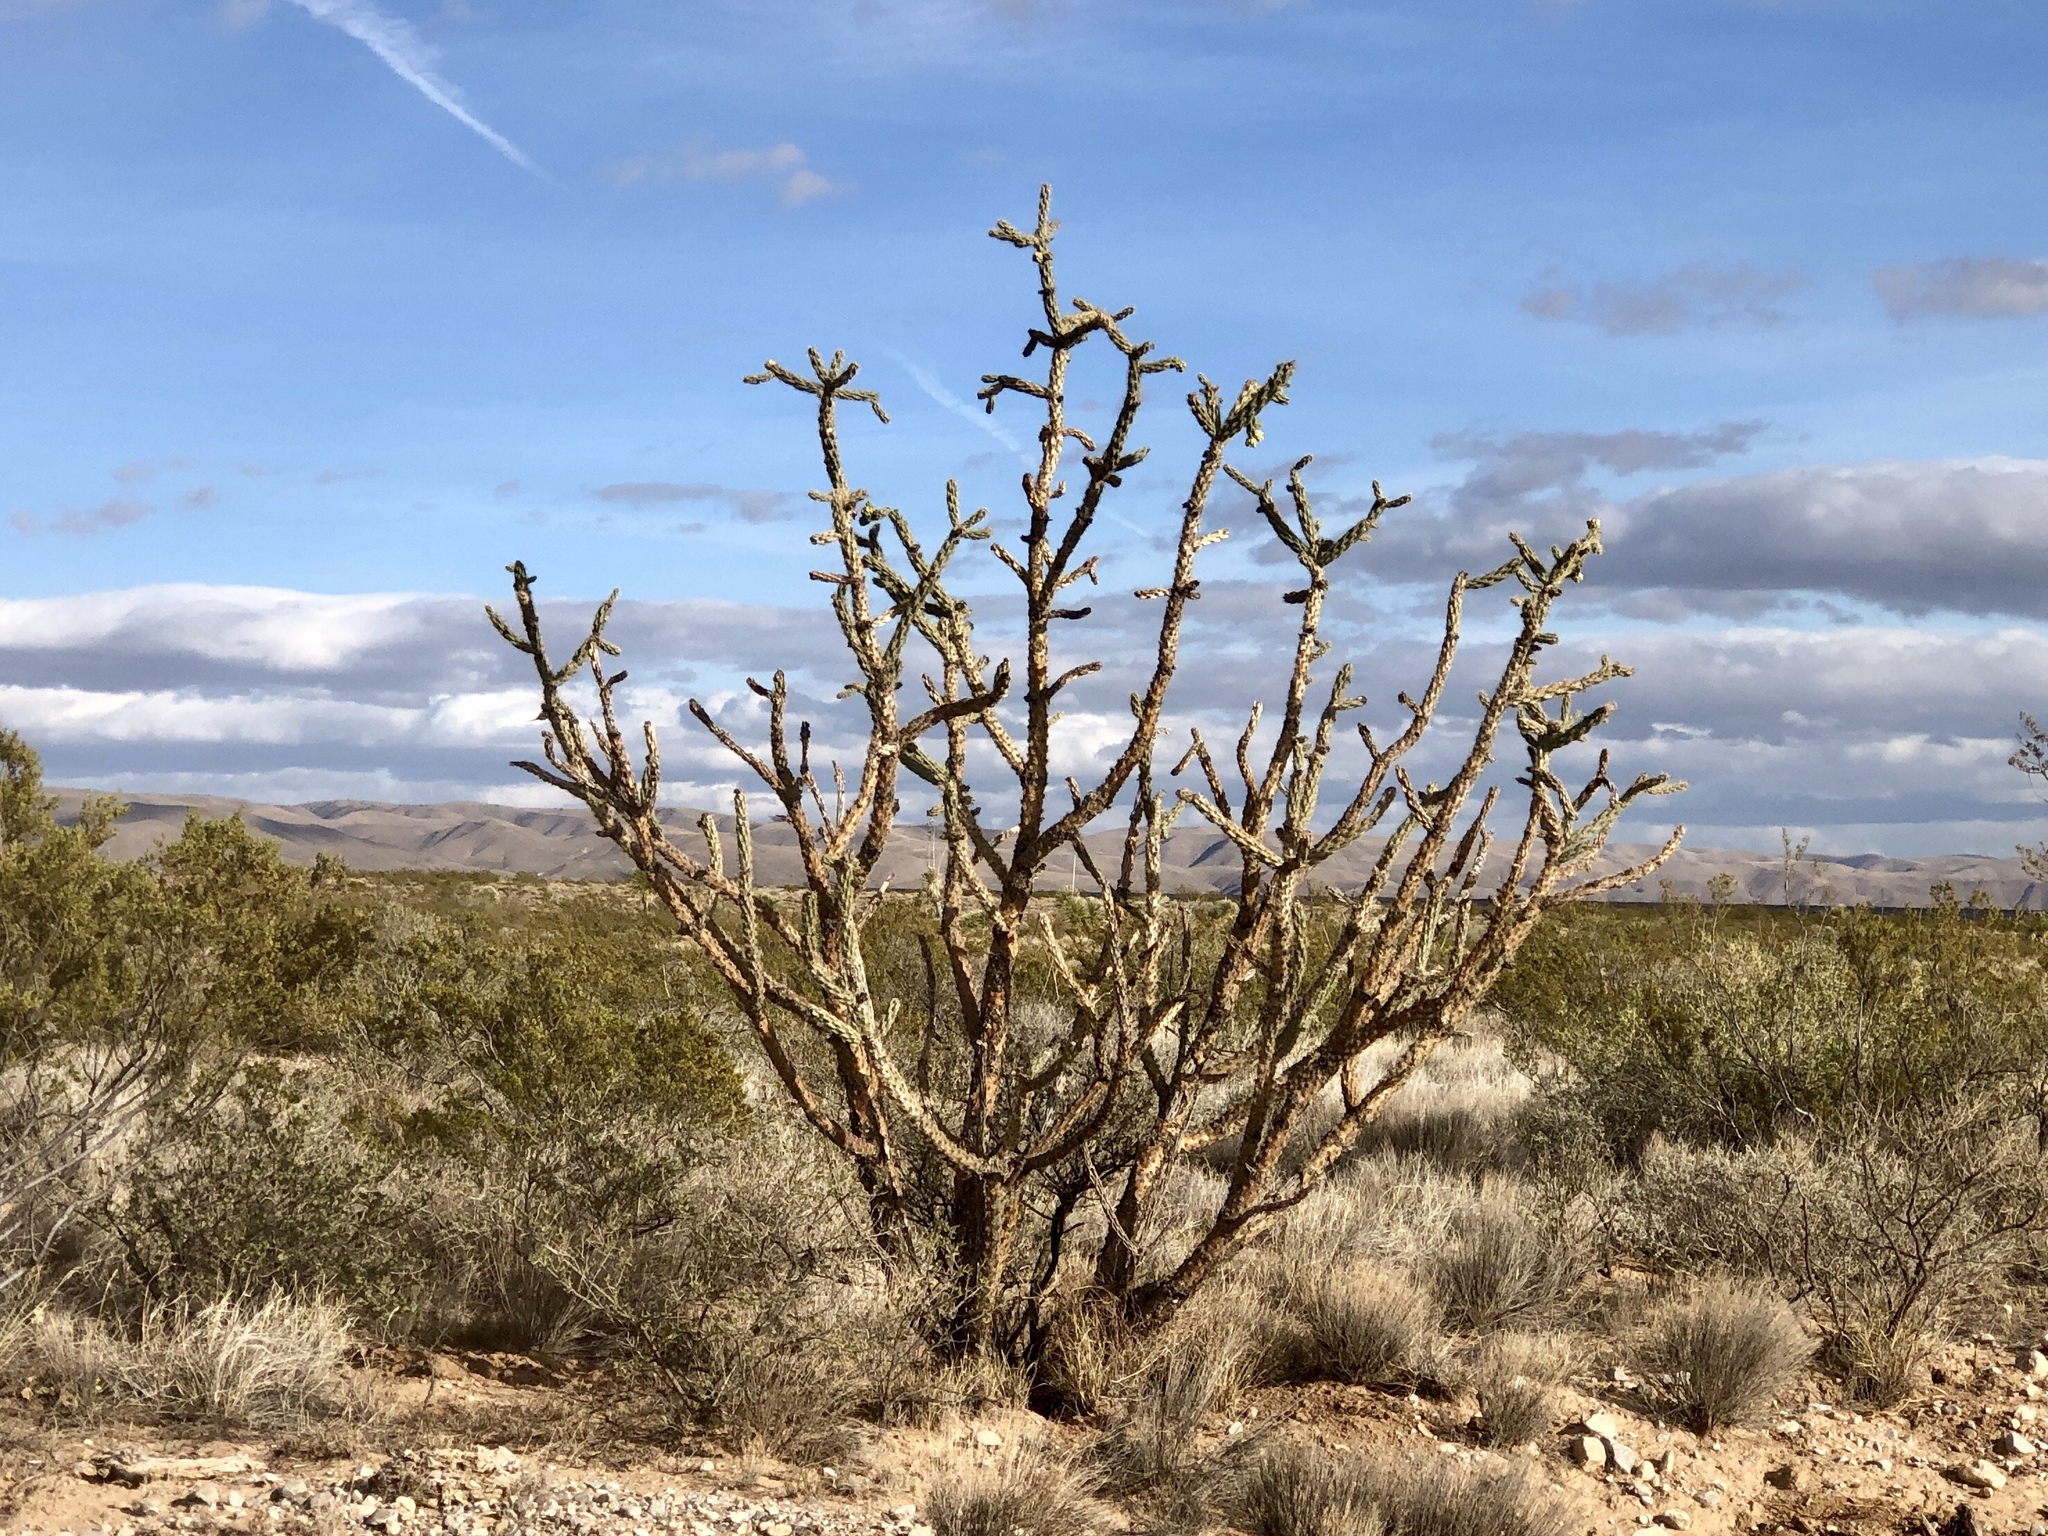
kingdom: Plantae
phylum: Tracheophyta
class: Magnoliopsida
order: Caryophyllales
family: Cactaceae
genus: Cylindropuntia
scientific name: Cylindropuntia imbricata
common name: Candelabrum cactus
